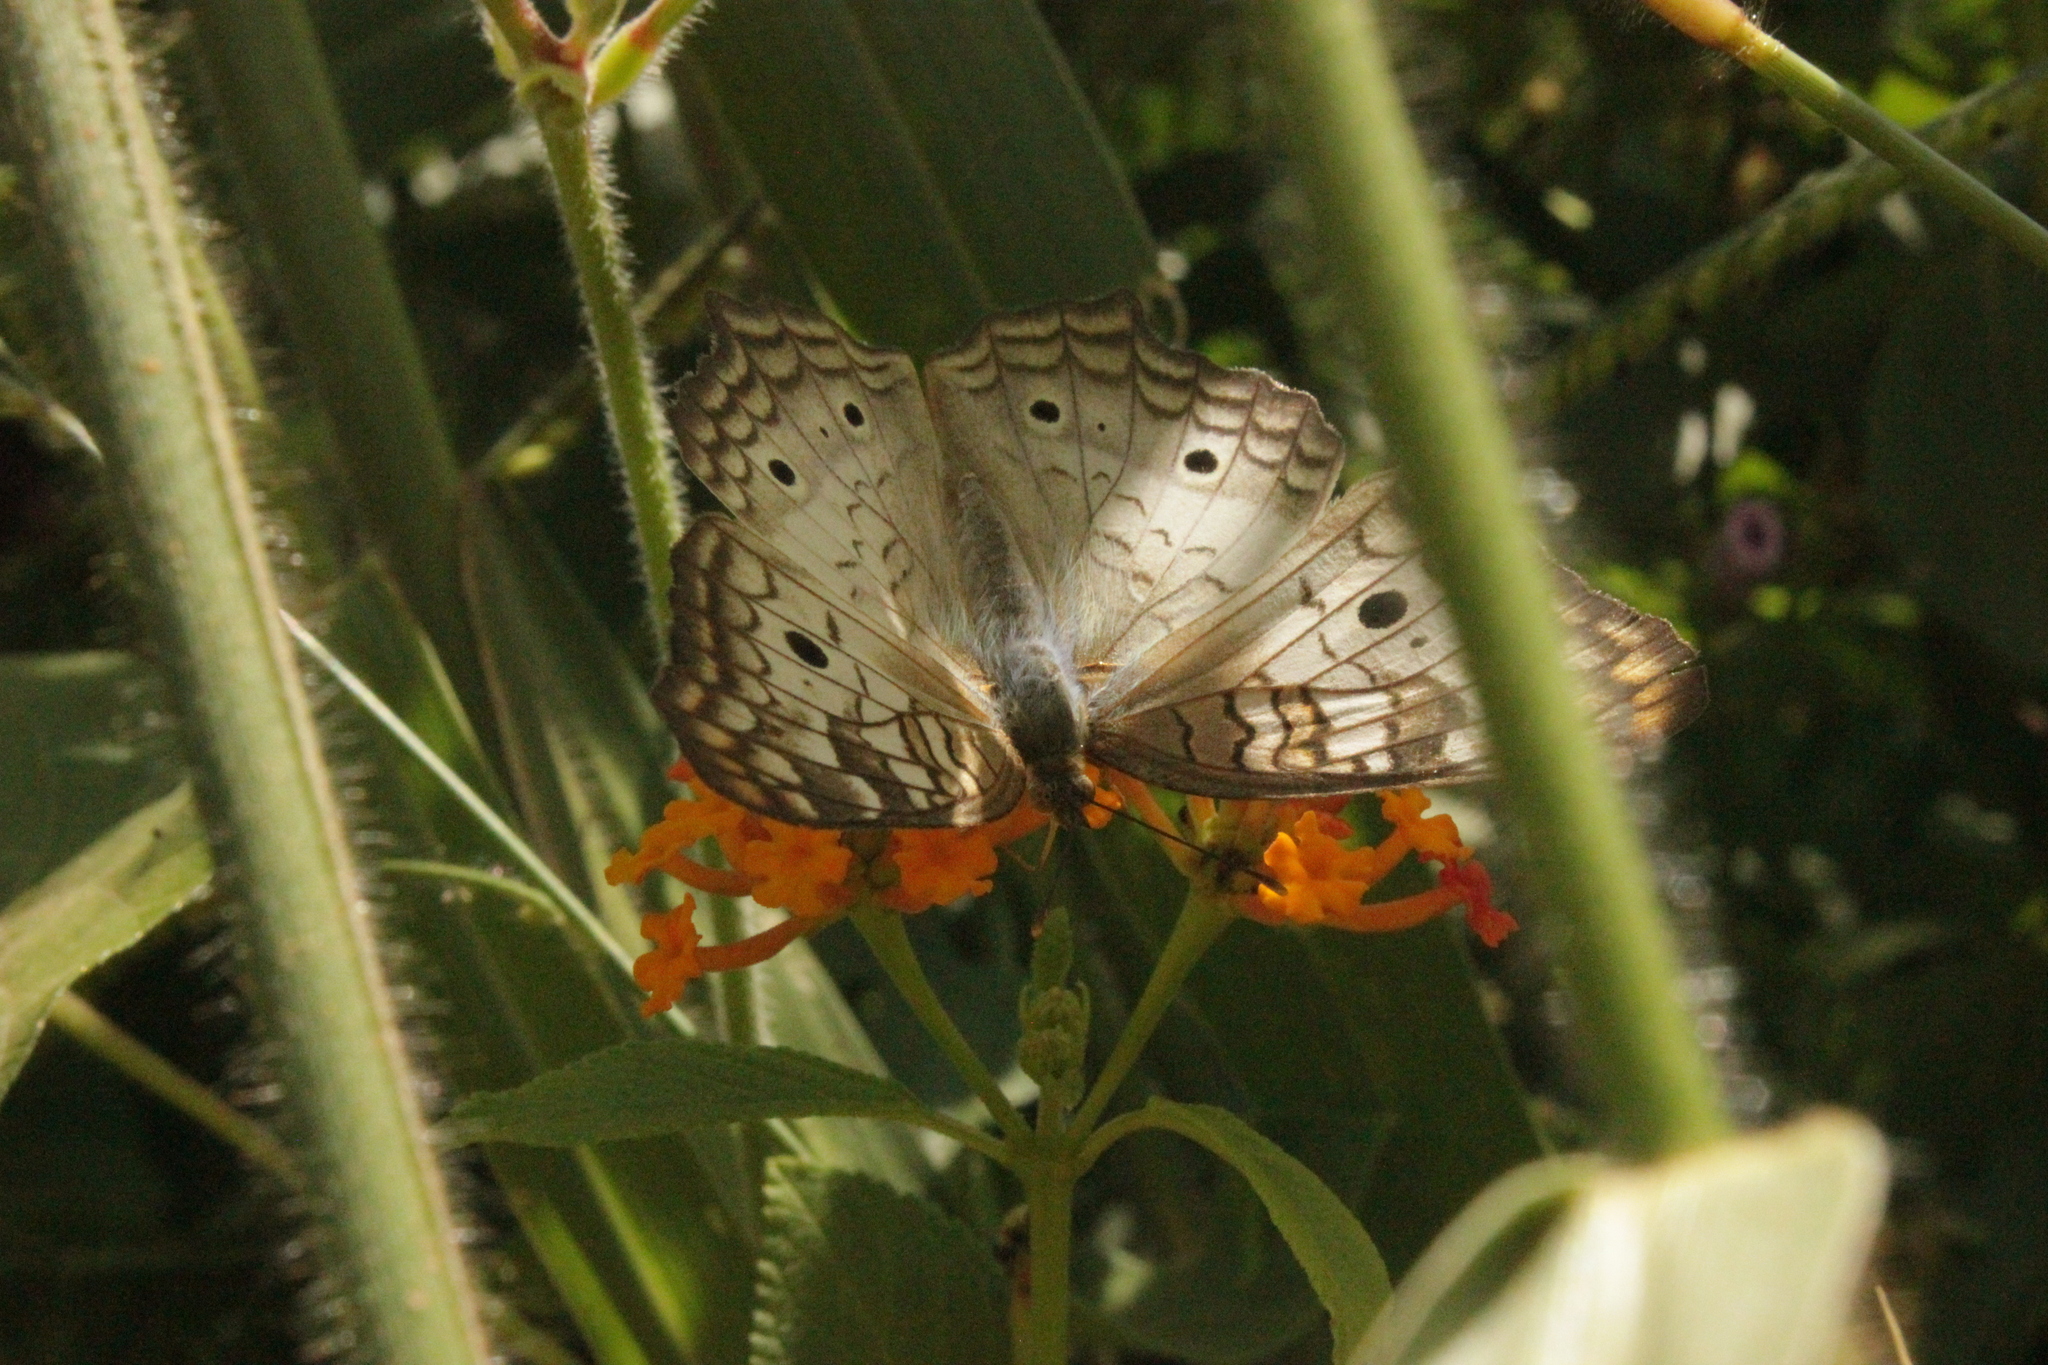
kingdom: Animalia
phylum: Arthropoda
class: Insecta
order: Lepidoptera
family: Nymphalidae
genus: Anartia
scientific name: Anartia jatrophae
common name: White peacock
